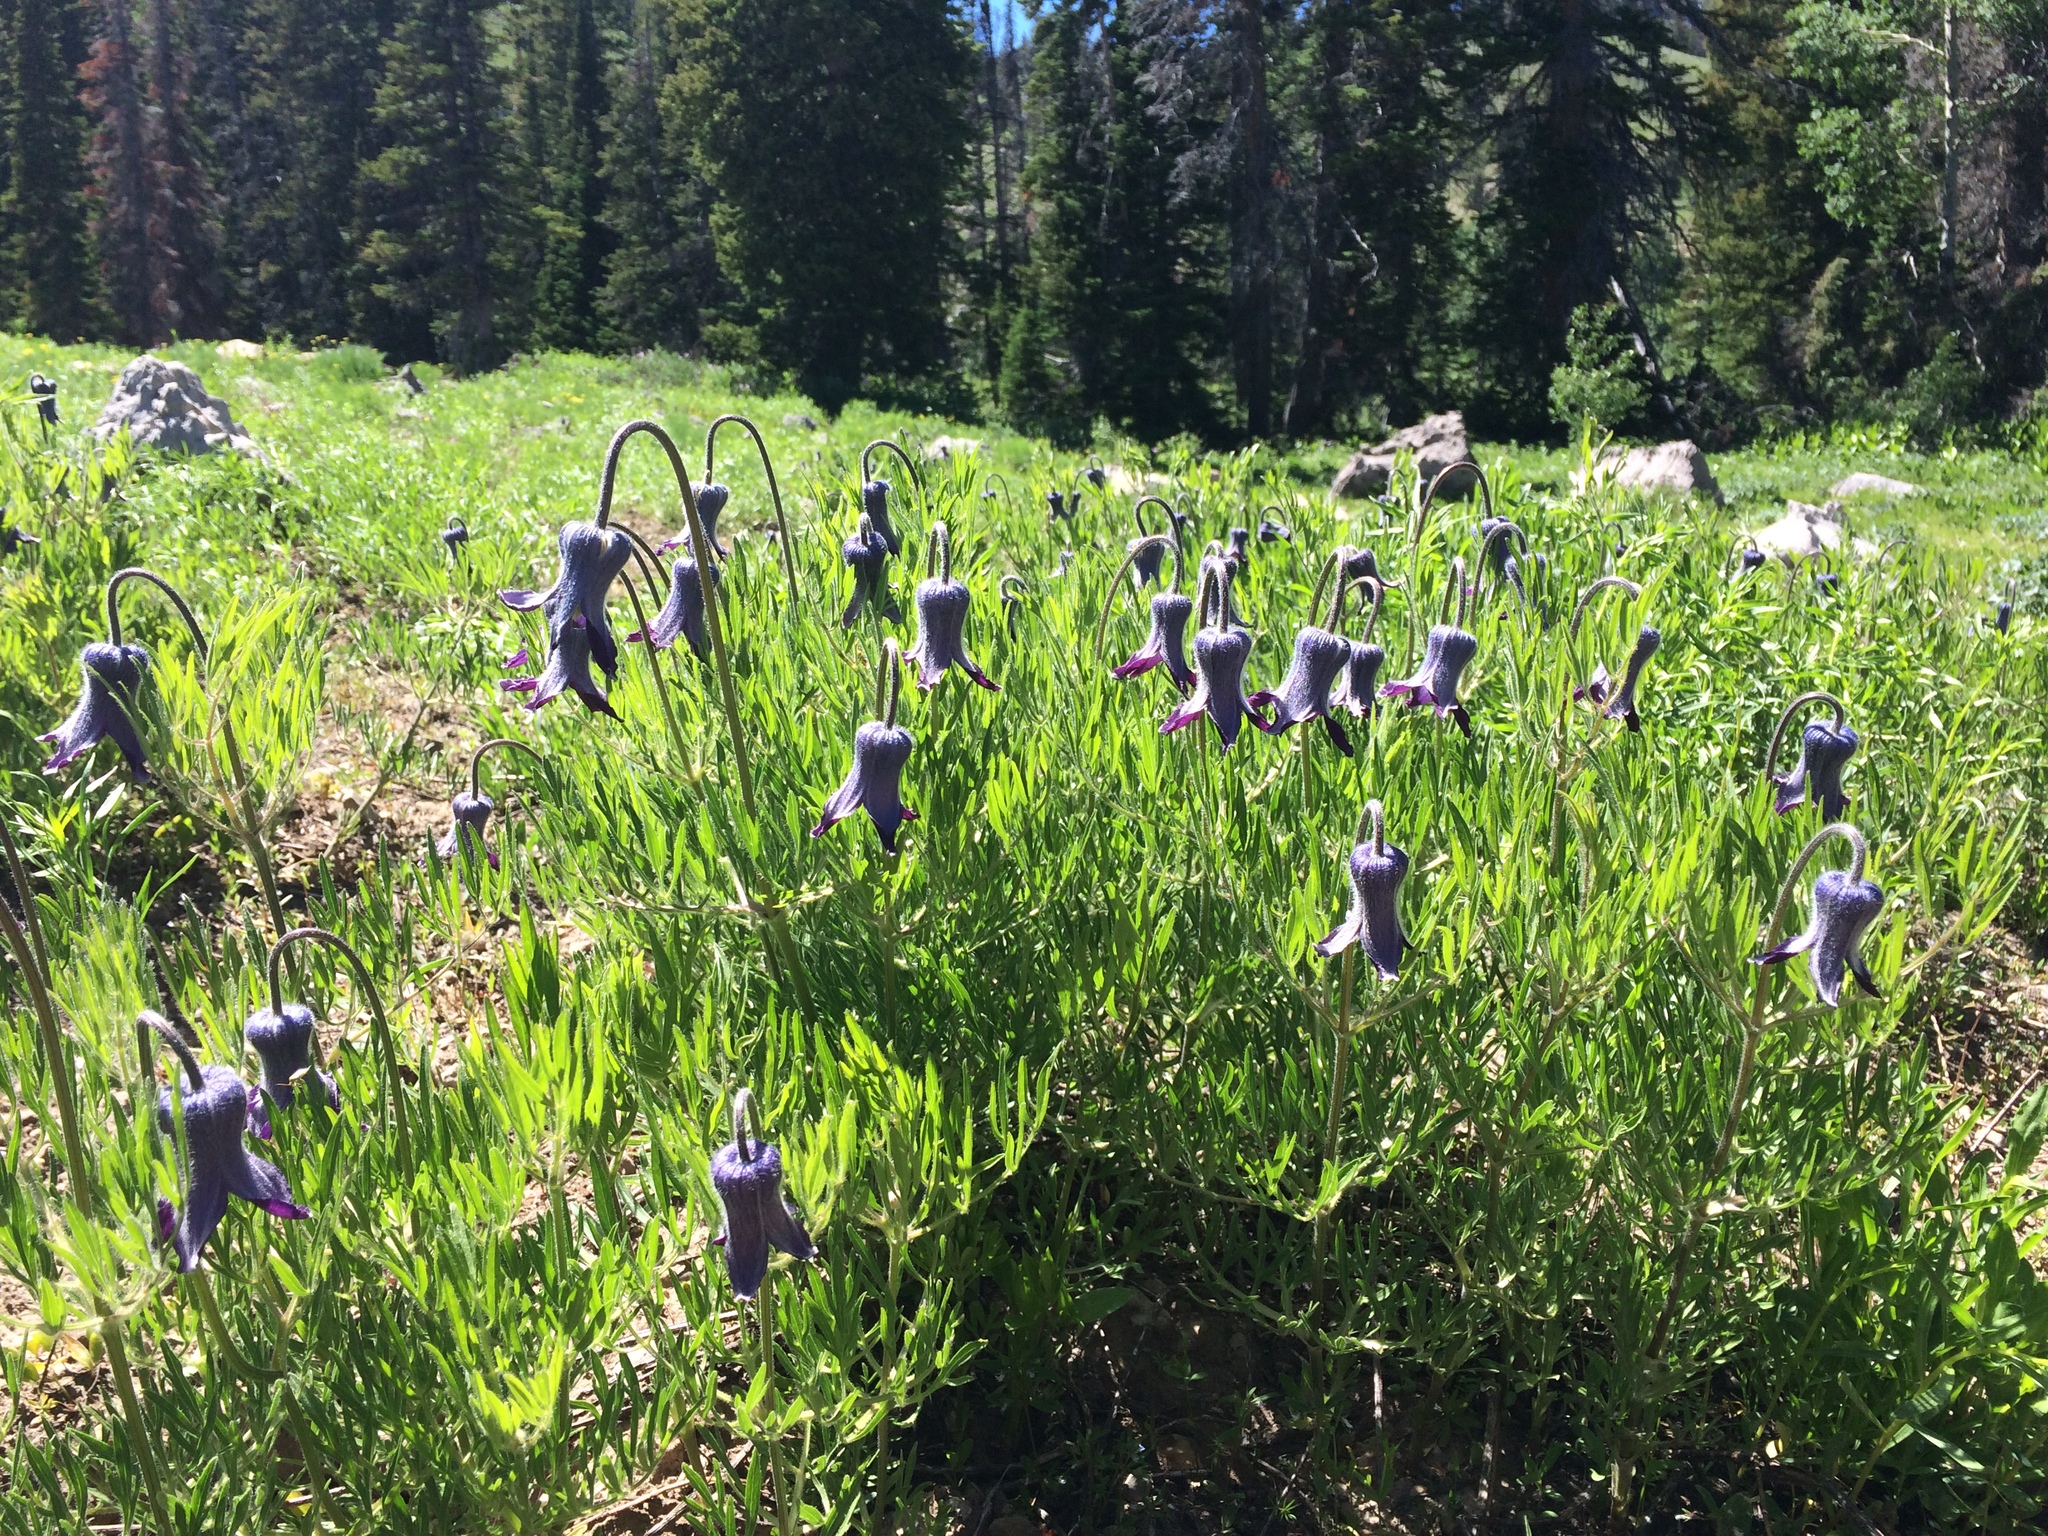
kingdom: Plantae
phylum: Tracheophyta
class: Magnoliopsida
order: Ranunculales
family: Ranunculaceae
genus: Clematis
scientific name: Clematis hirsutissima
